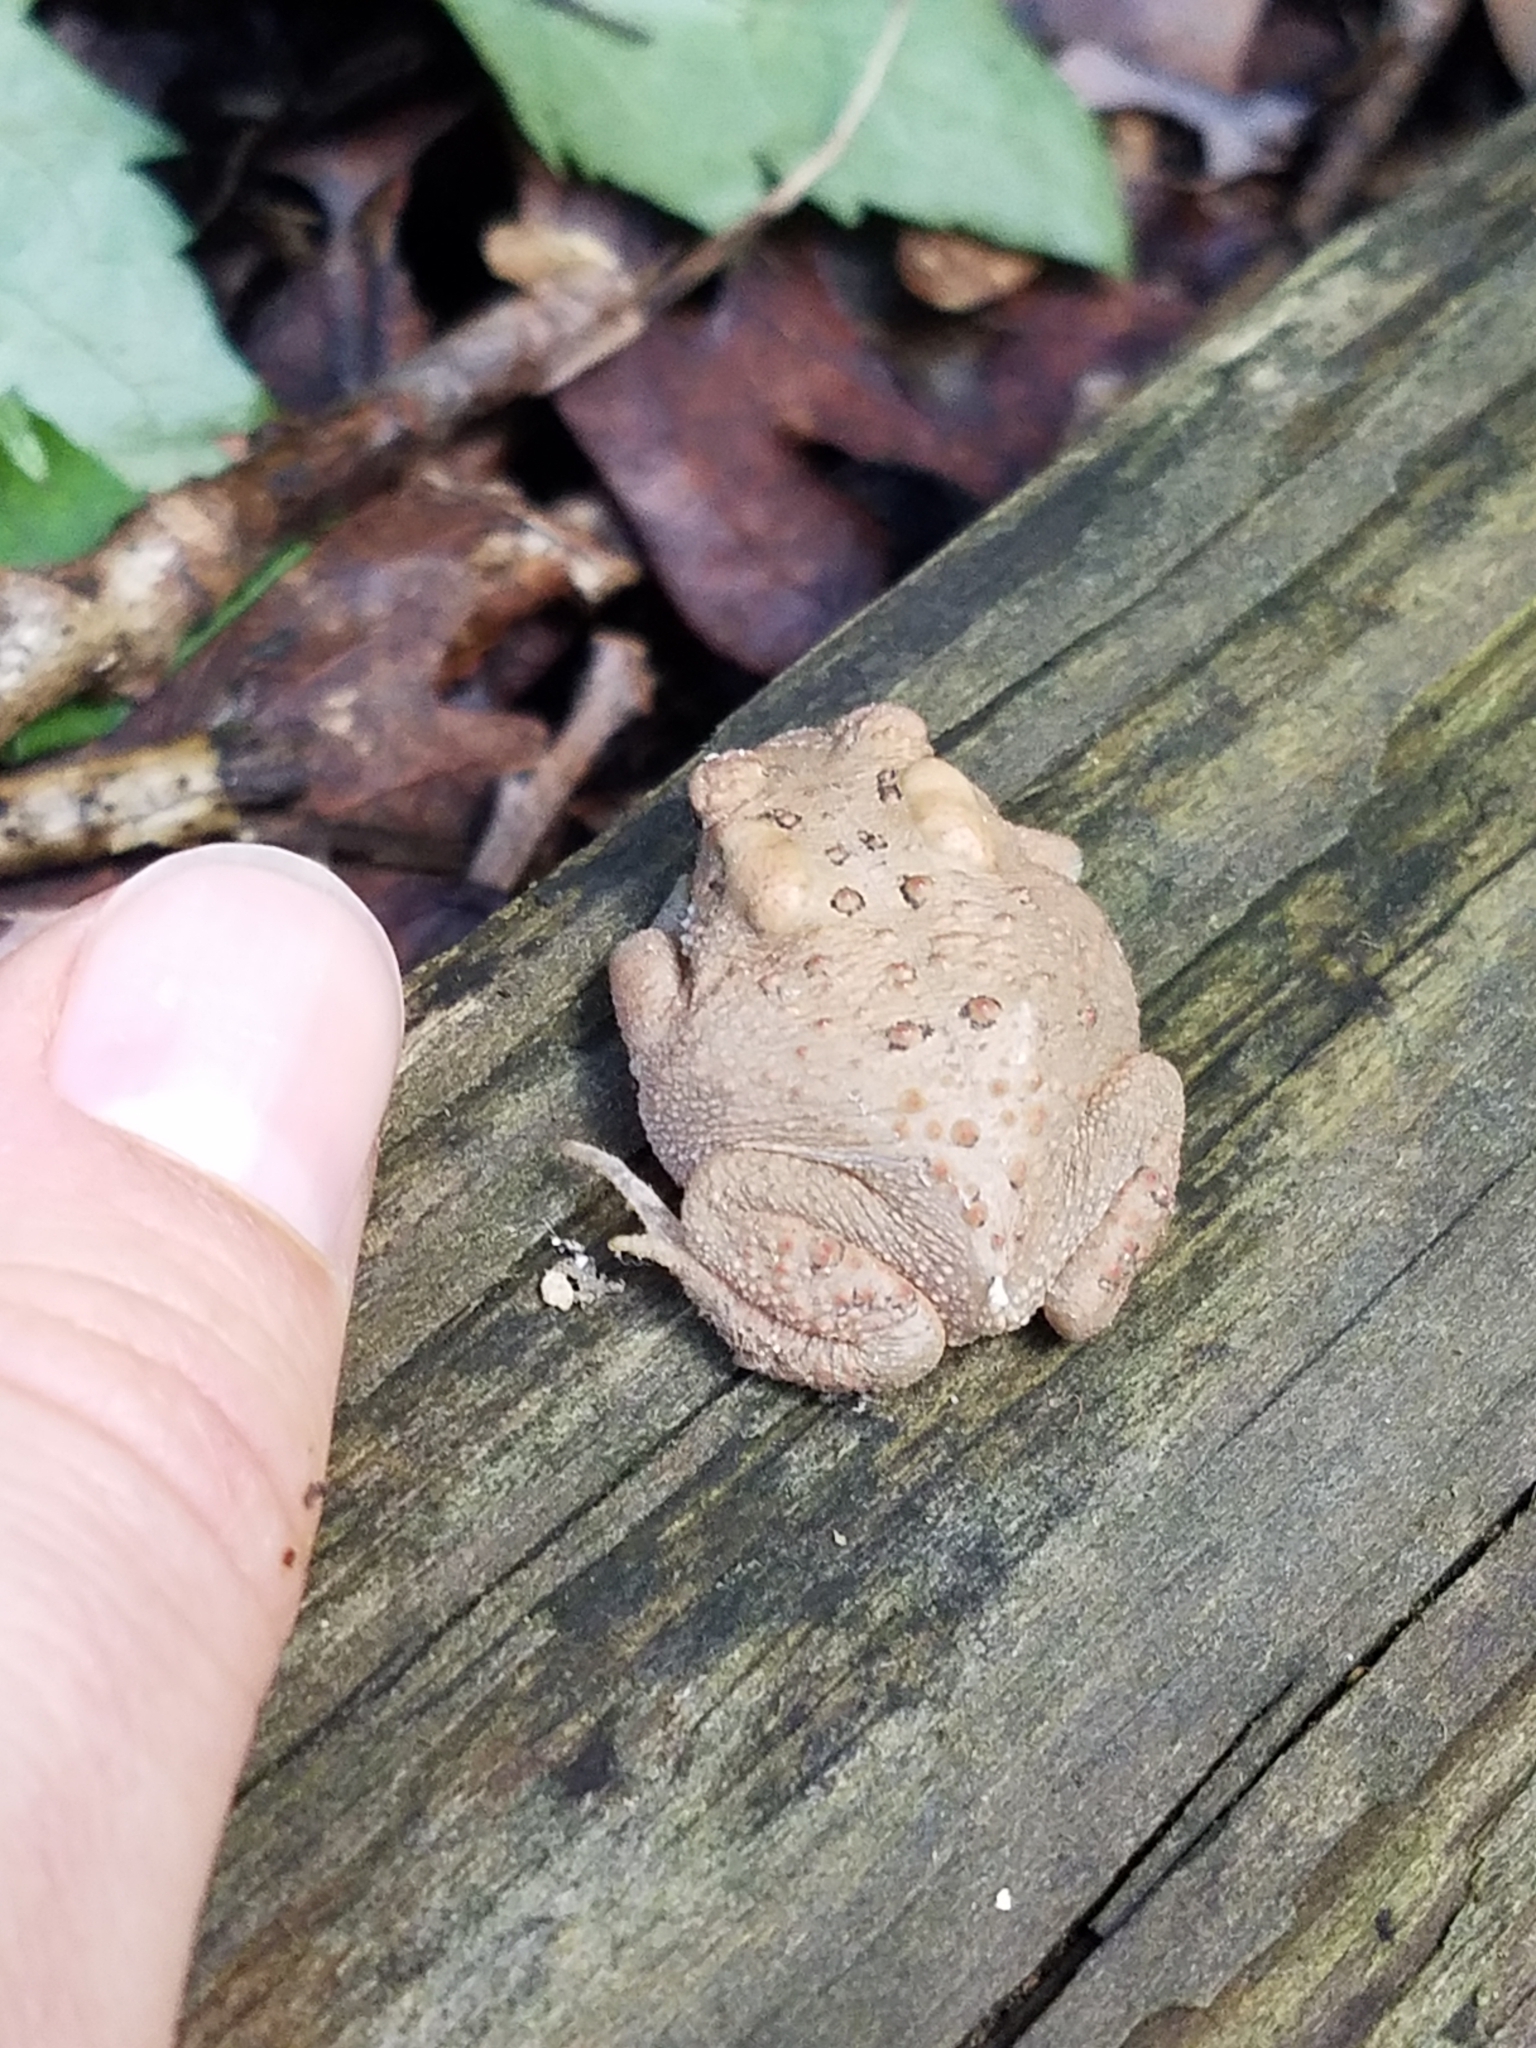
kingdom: Animalia
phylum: Chordata
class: Amphibia
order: Anura
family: Bufonidae
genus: Anaxyrus
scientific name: Anaxyrus americanus
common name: American toad
